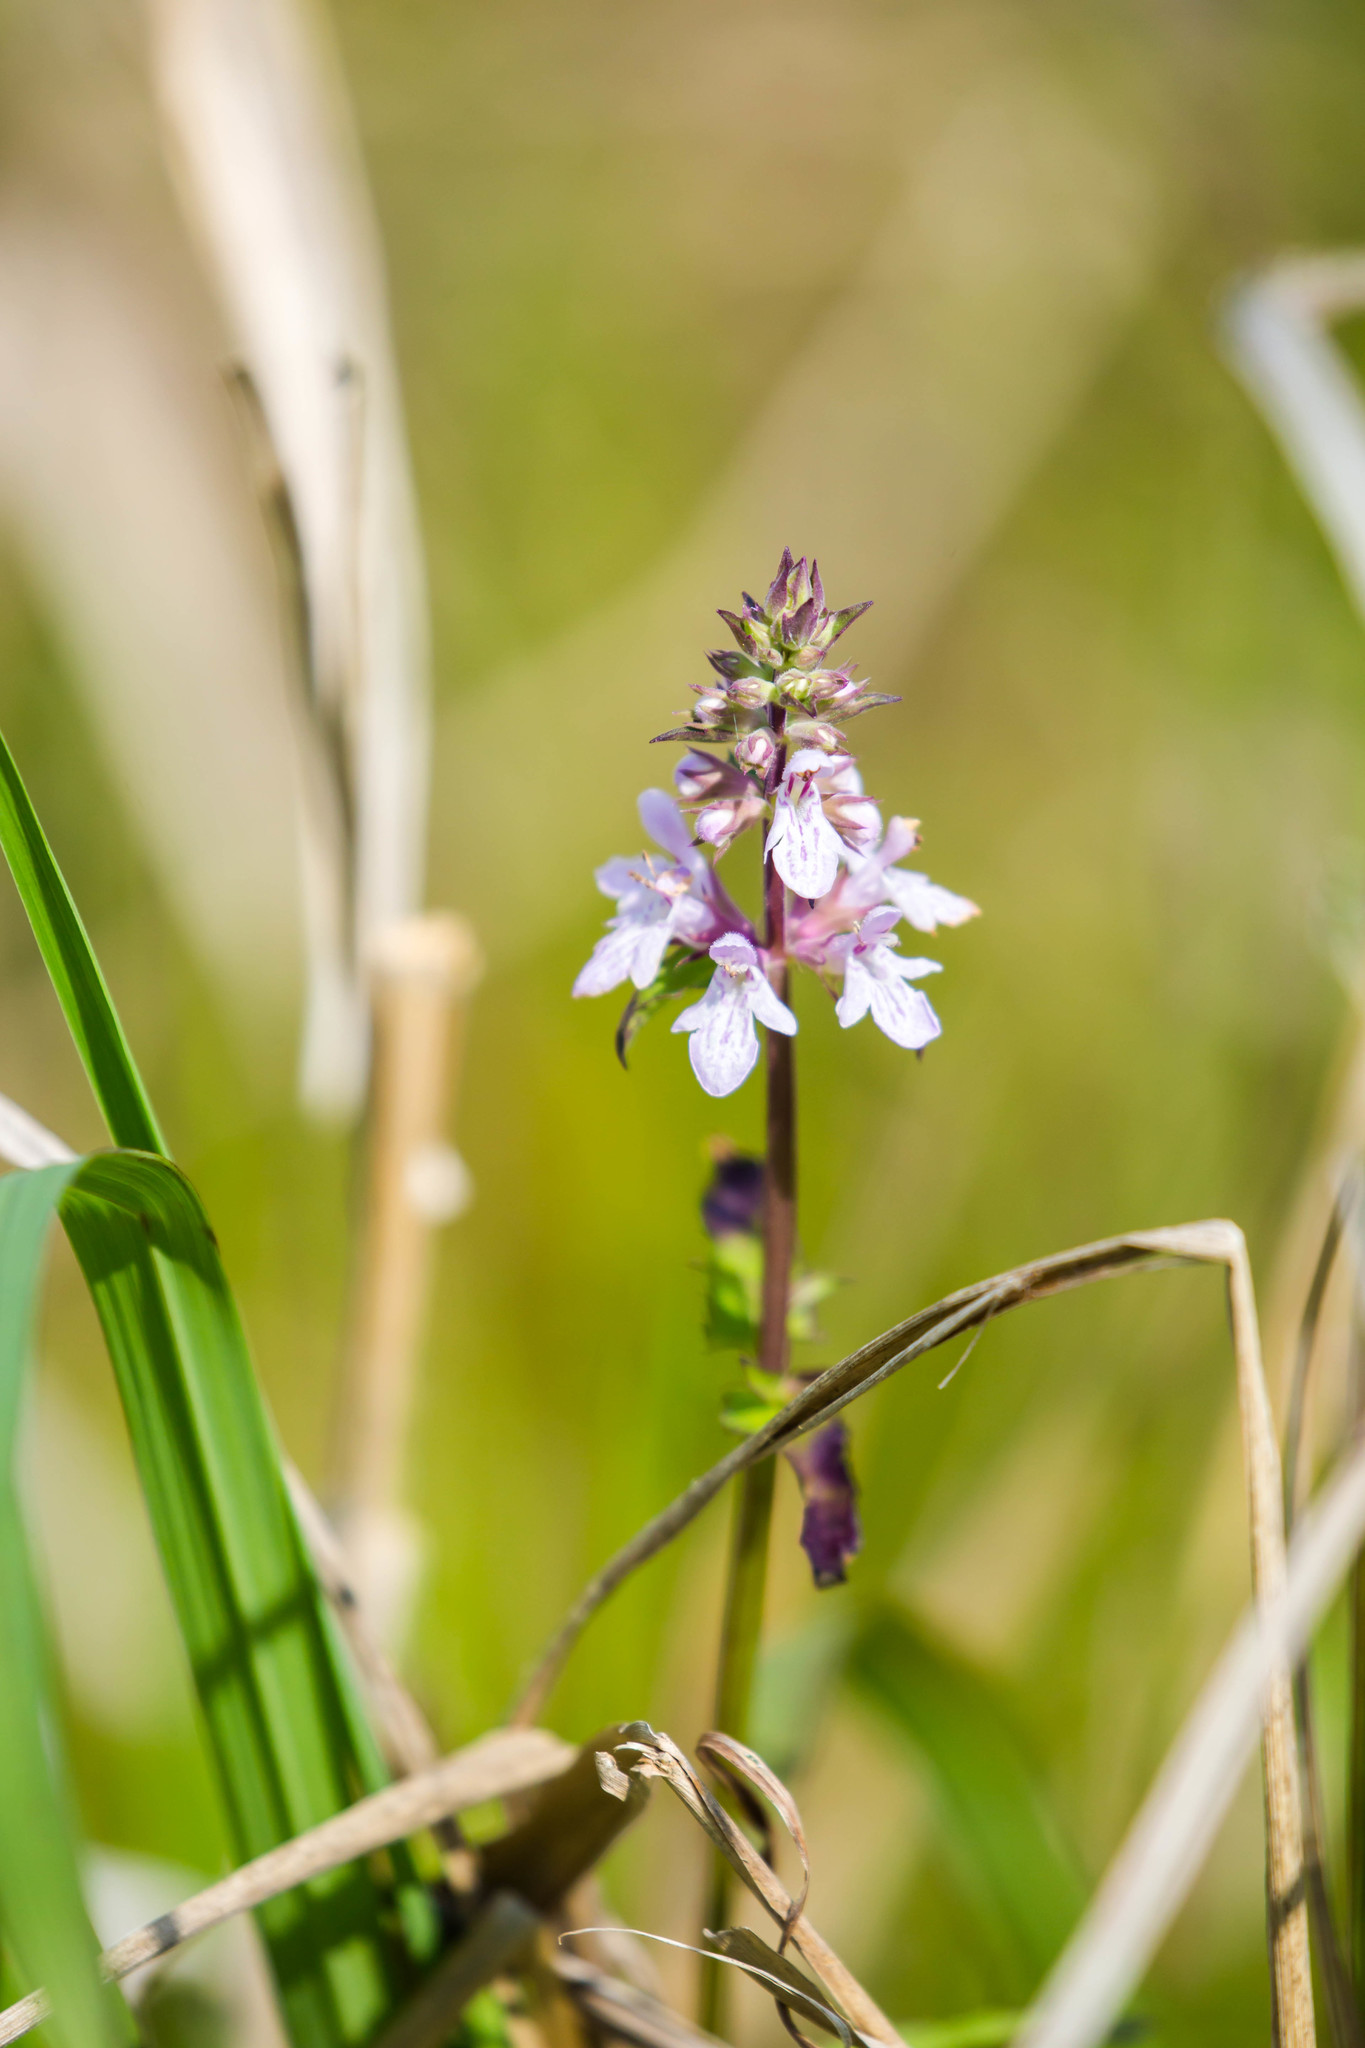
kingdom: Plantae
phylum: Tracheophyta
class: Magnoliopsida
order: Lamiales
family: Lamiaceae
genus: Stachys
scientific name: Stachys floridana
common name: Florida betony
